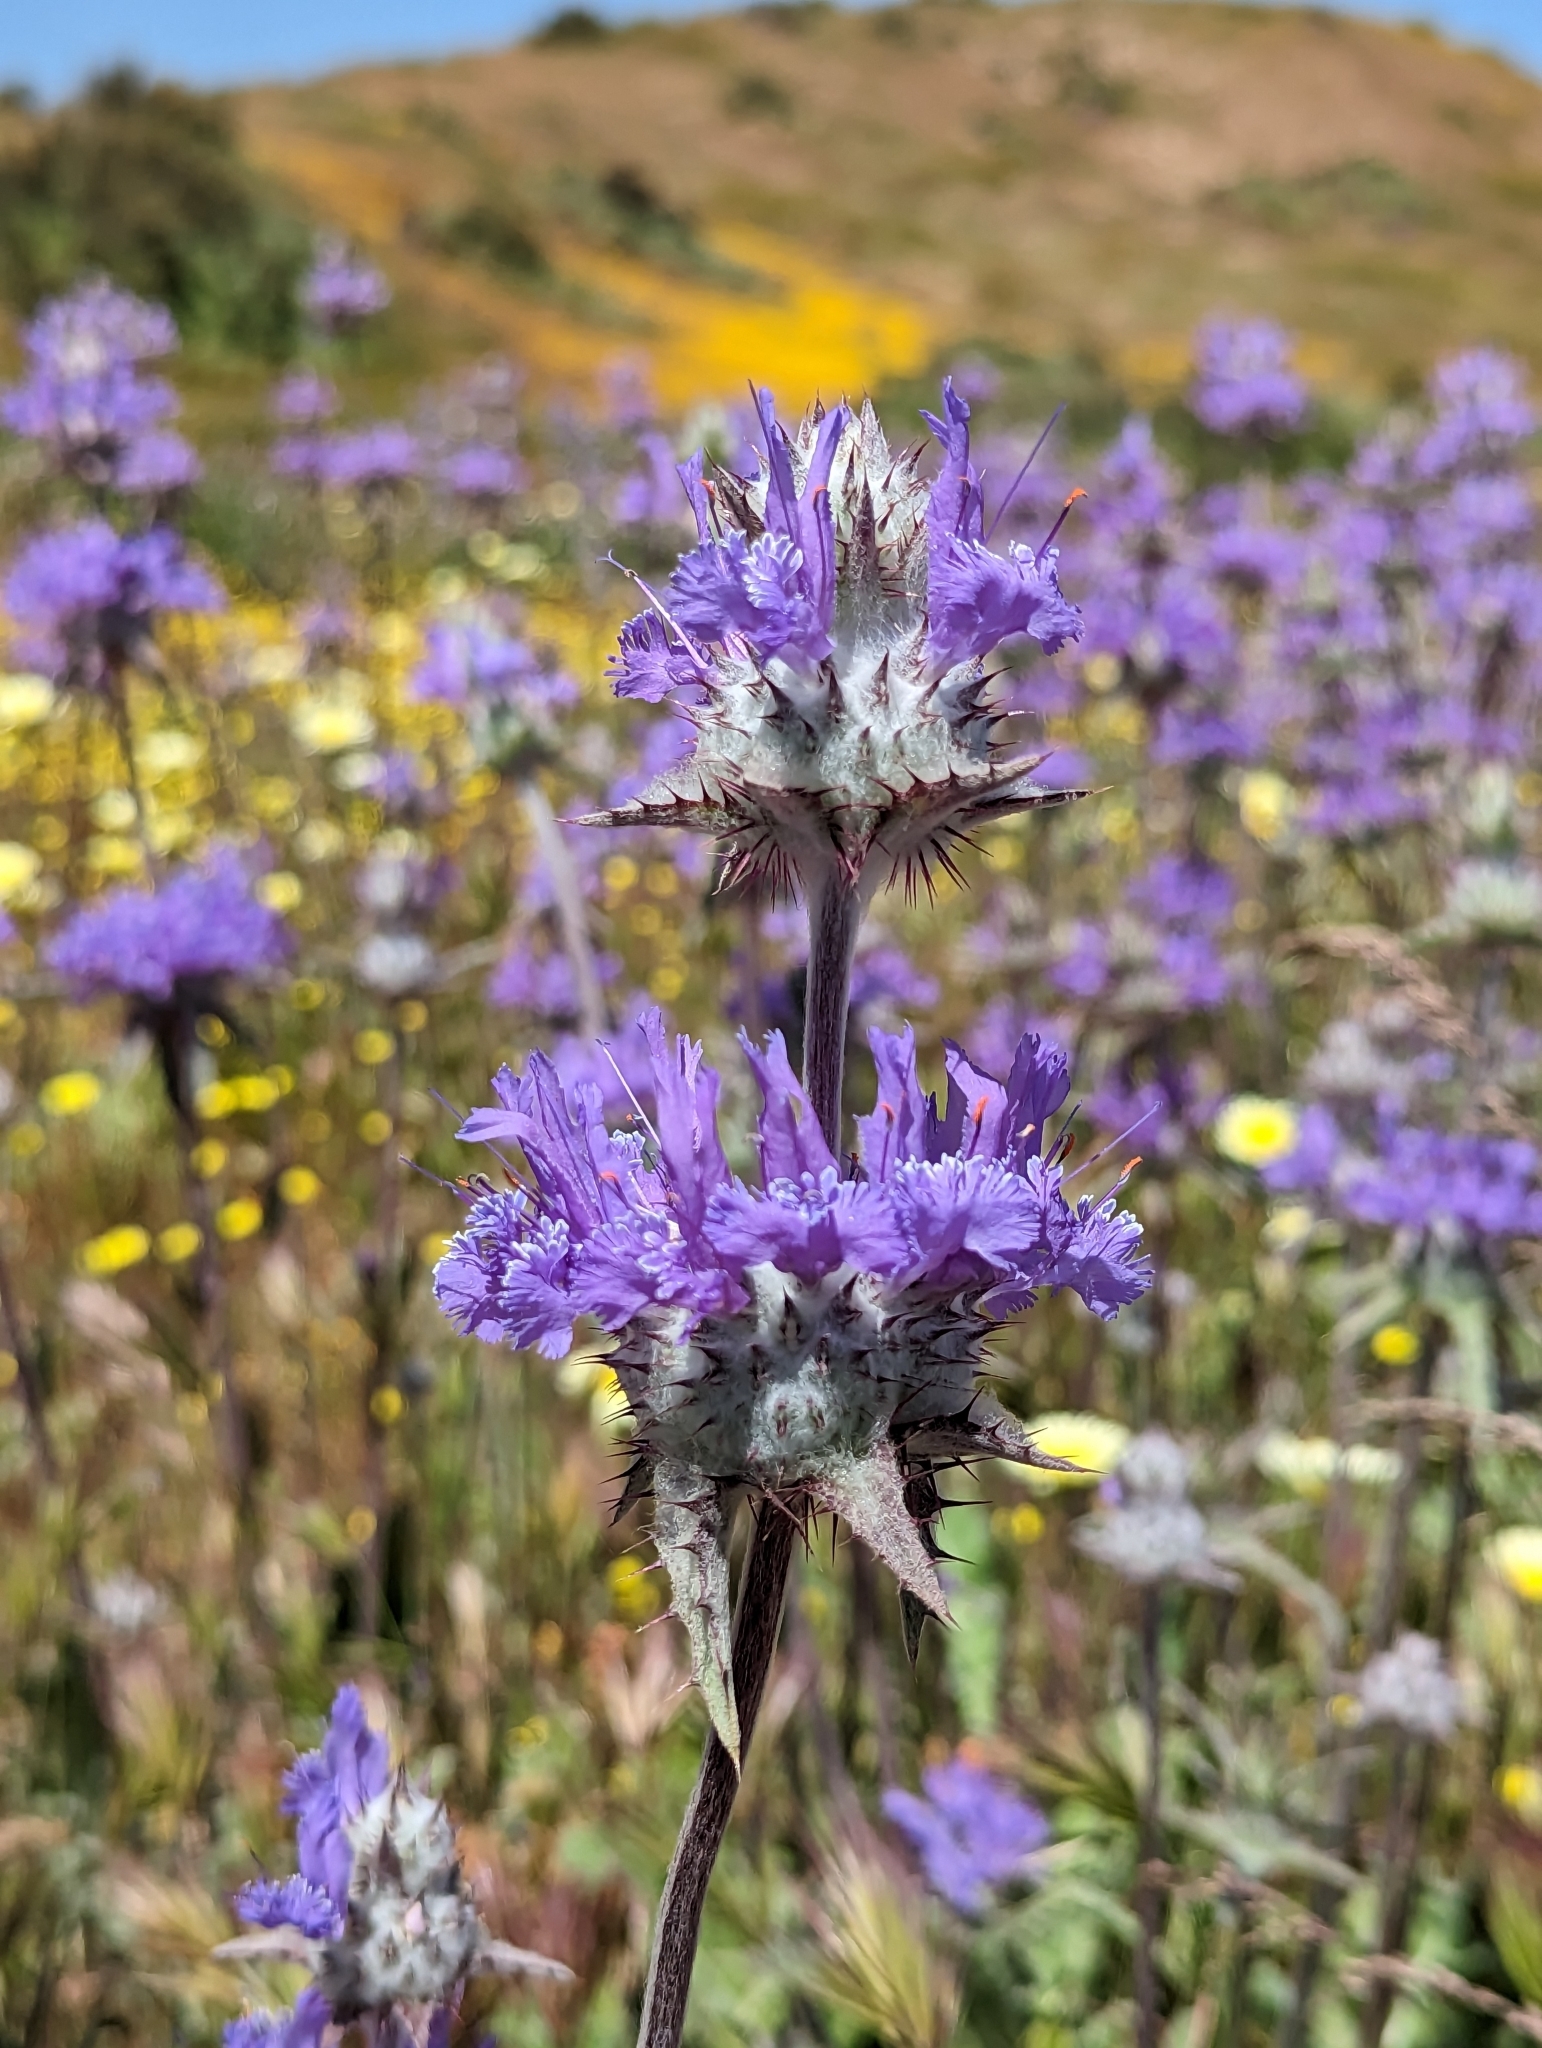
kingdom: Plantae
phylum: Tracheophyta
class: Magnoliopsida
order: Lamiales
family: Lamiaceae
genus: Salvia
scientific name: Salvia carduacea
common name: Thistle sage
